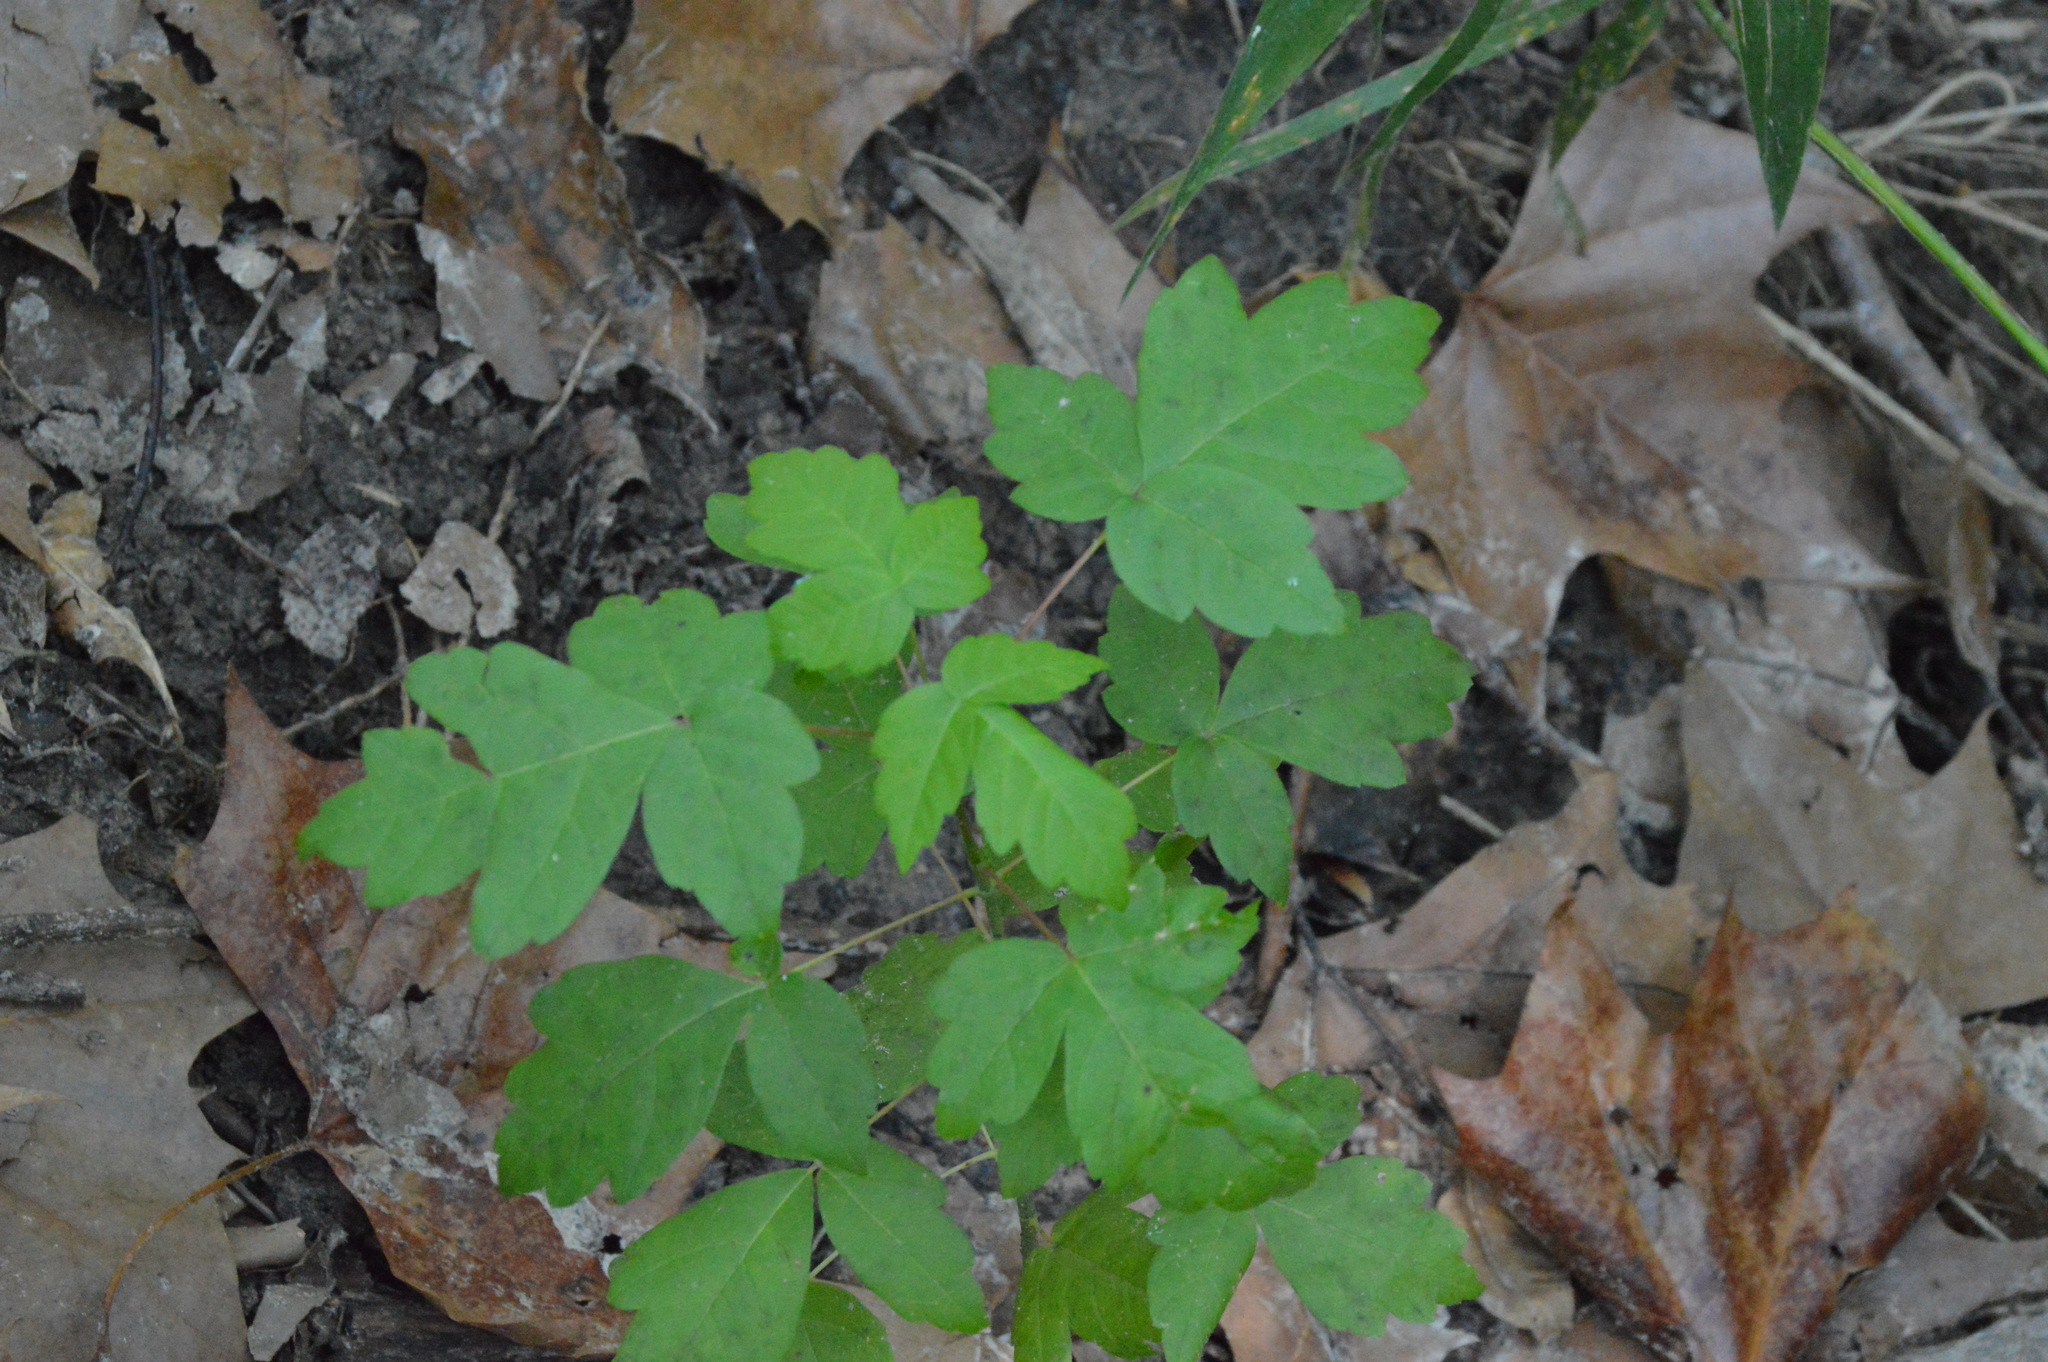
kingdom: Plantae
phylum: Tracheophyta
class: Magnoliopsida
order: Sapindales
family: Sapindaceae
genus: Acer
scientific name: Acer negundo
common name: Ashleaf maple
